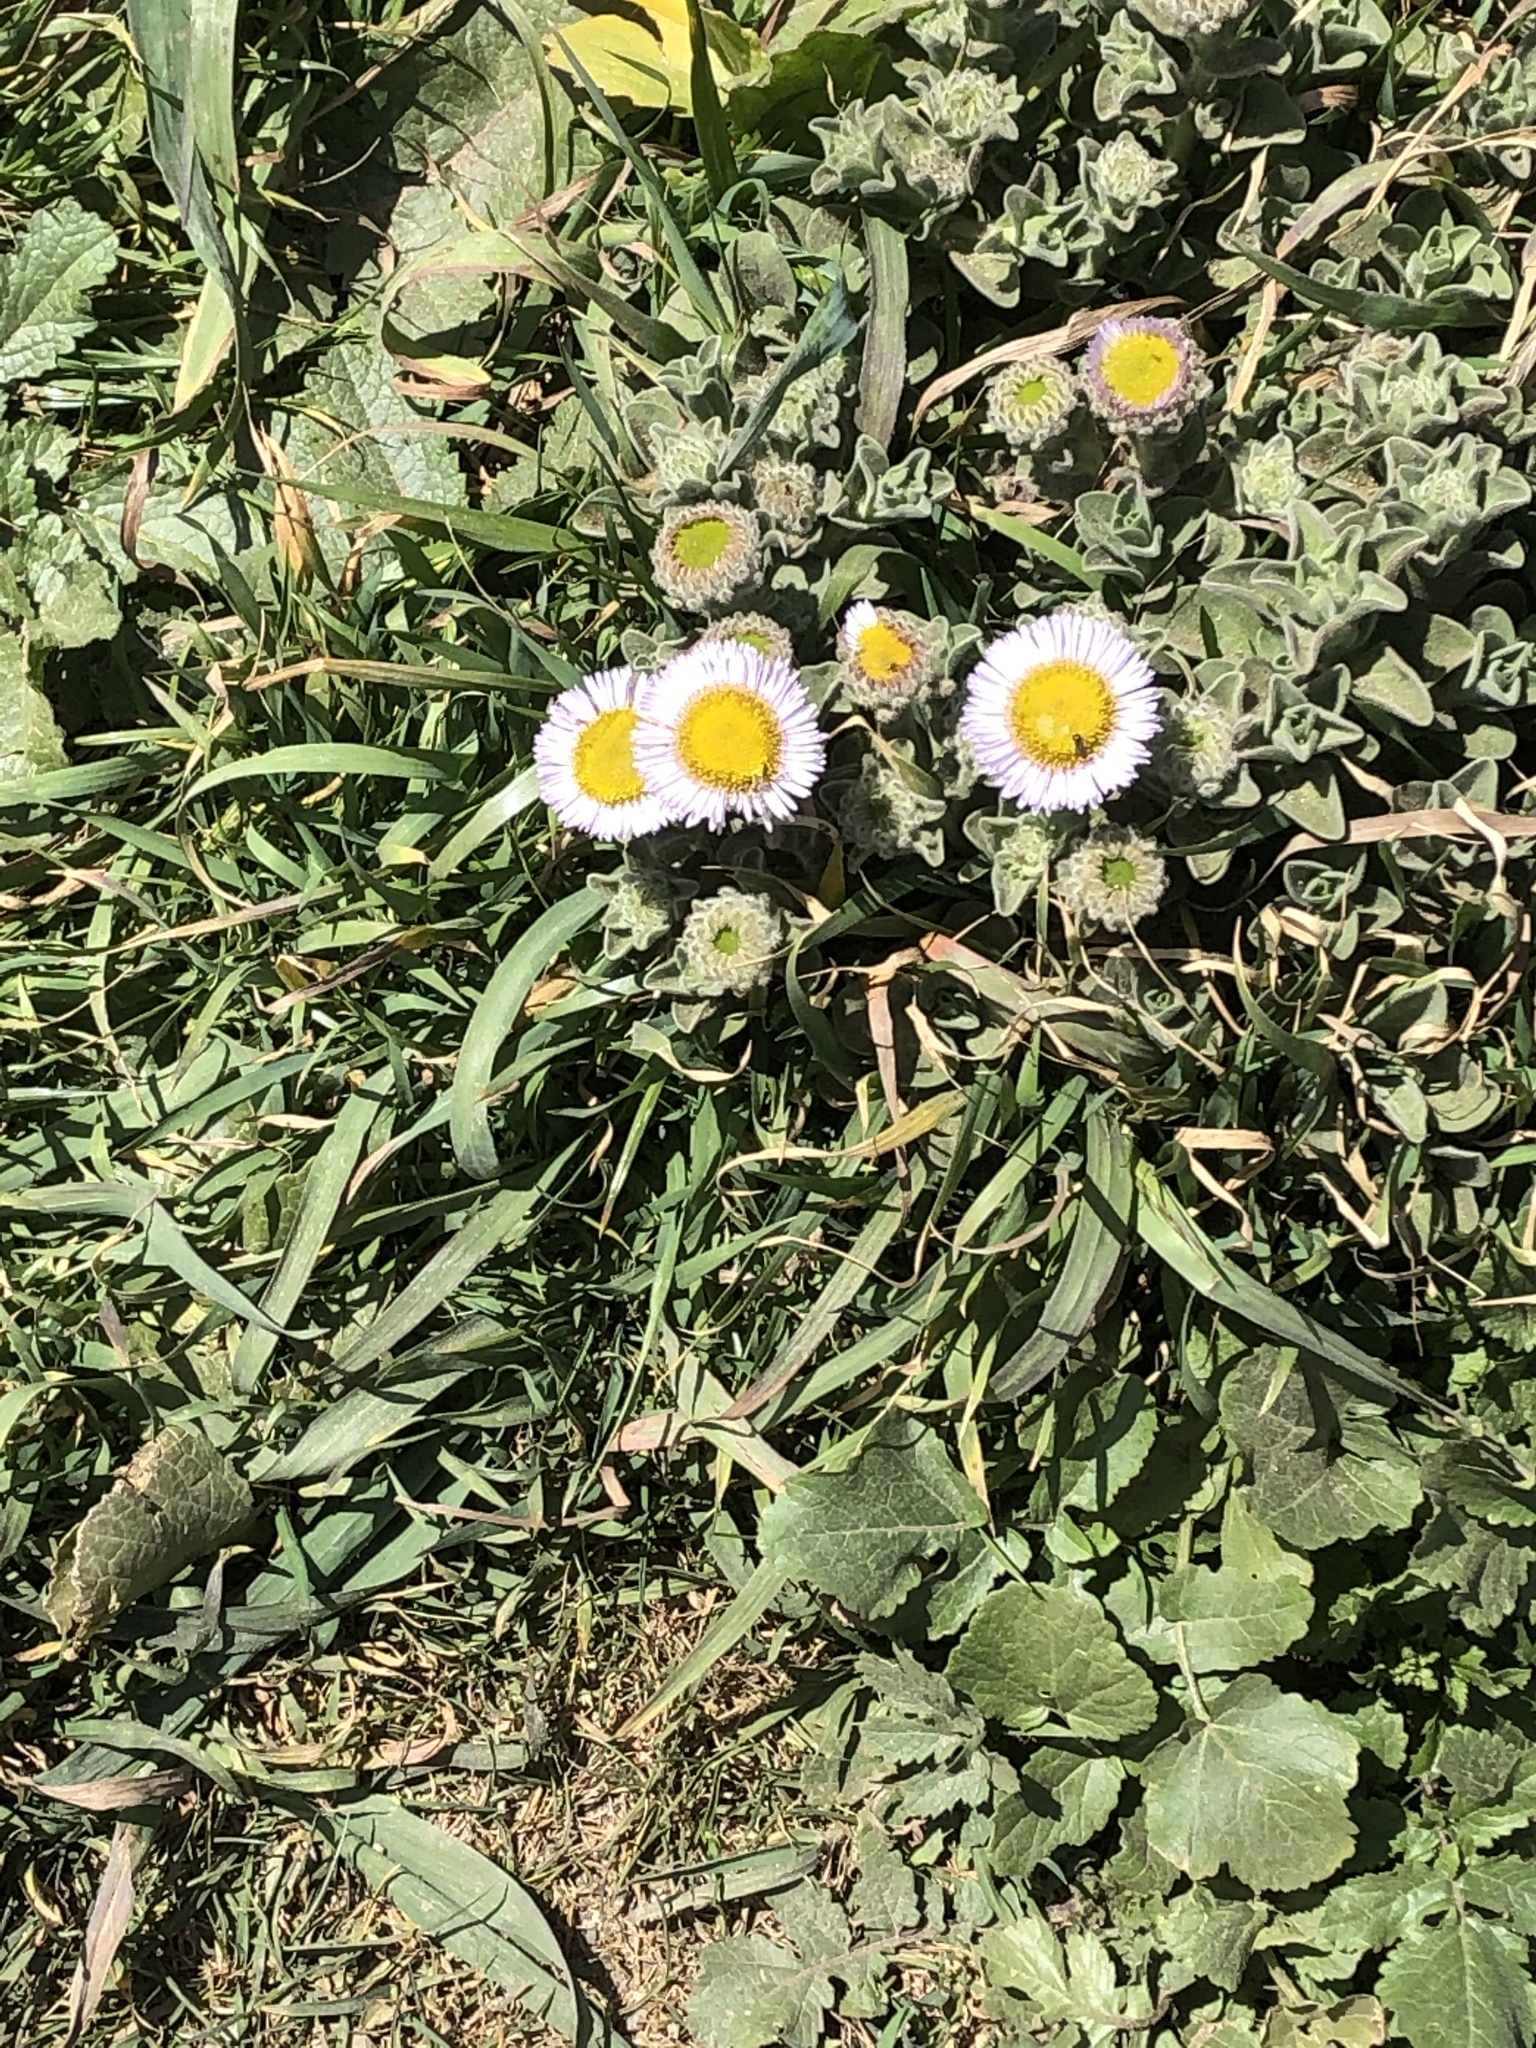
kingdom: Plantae
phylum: Tracheophyta
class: Magnoliopsida
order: Asterales
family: Asteraceae
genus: Erigeron
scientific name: Erigeron glaucus
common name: Seaside daisy
